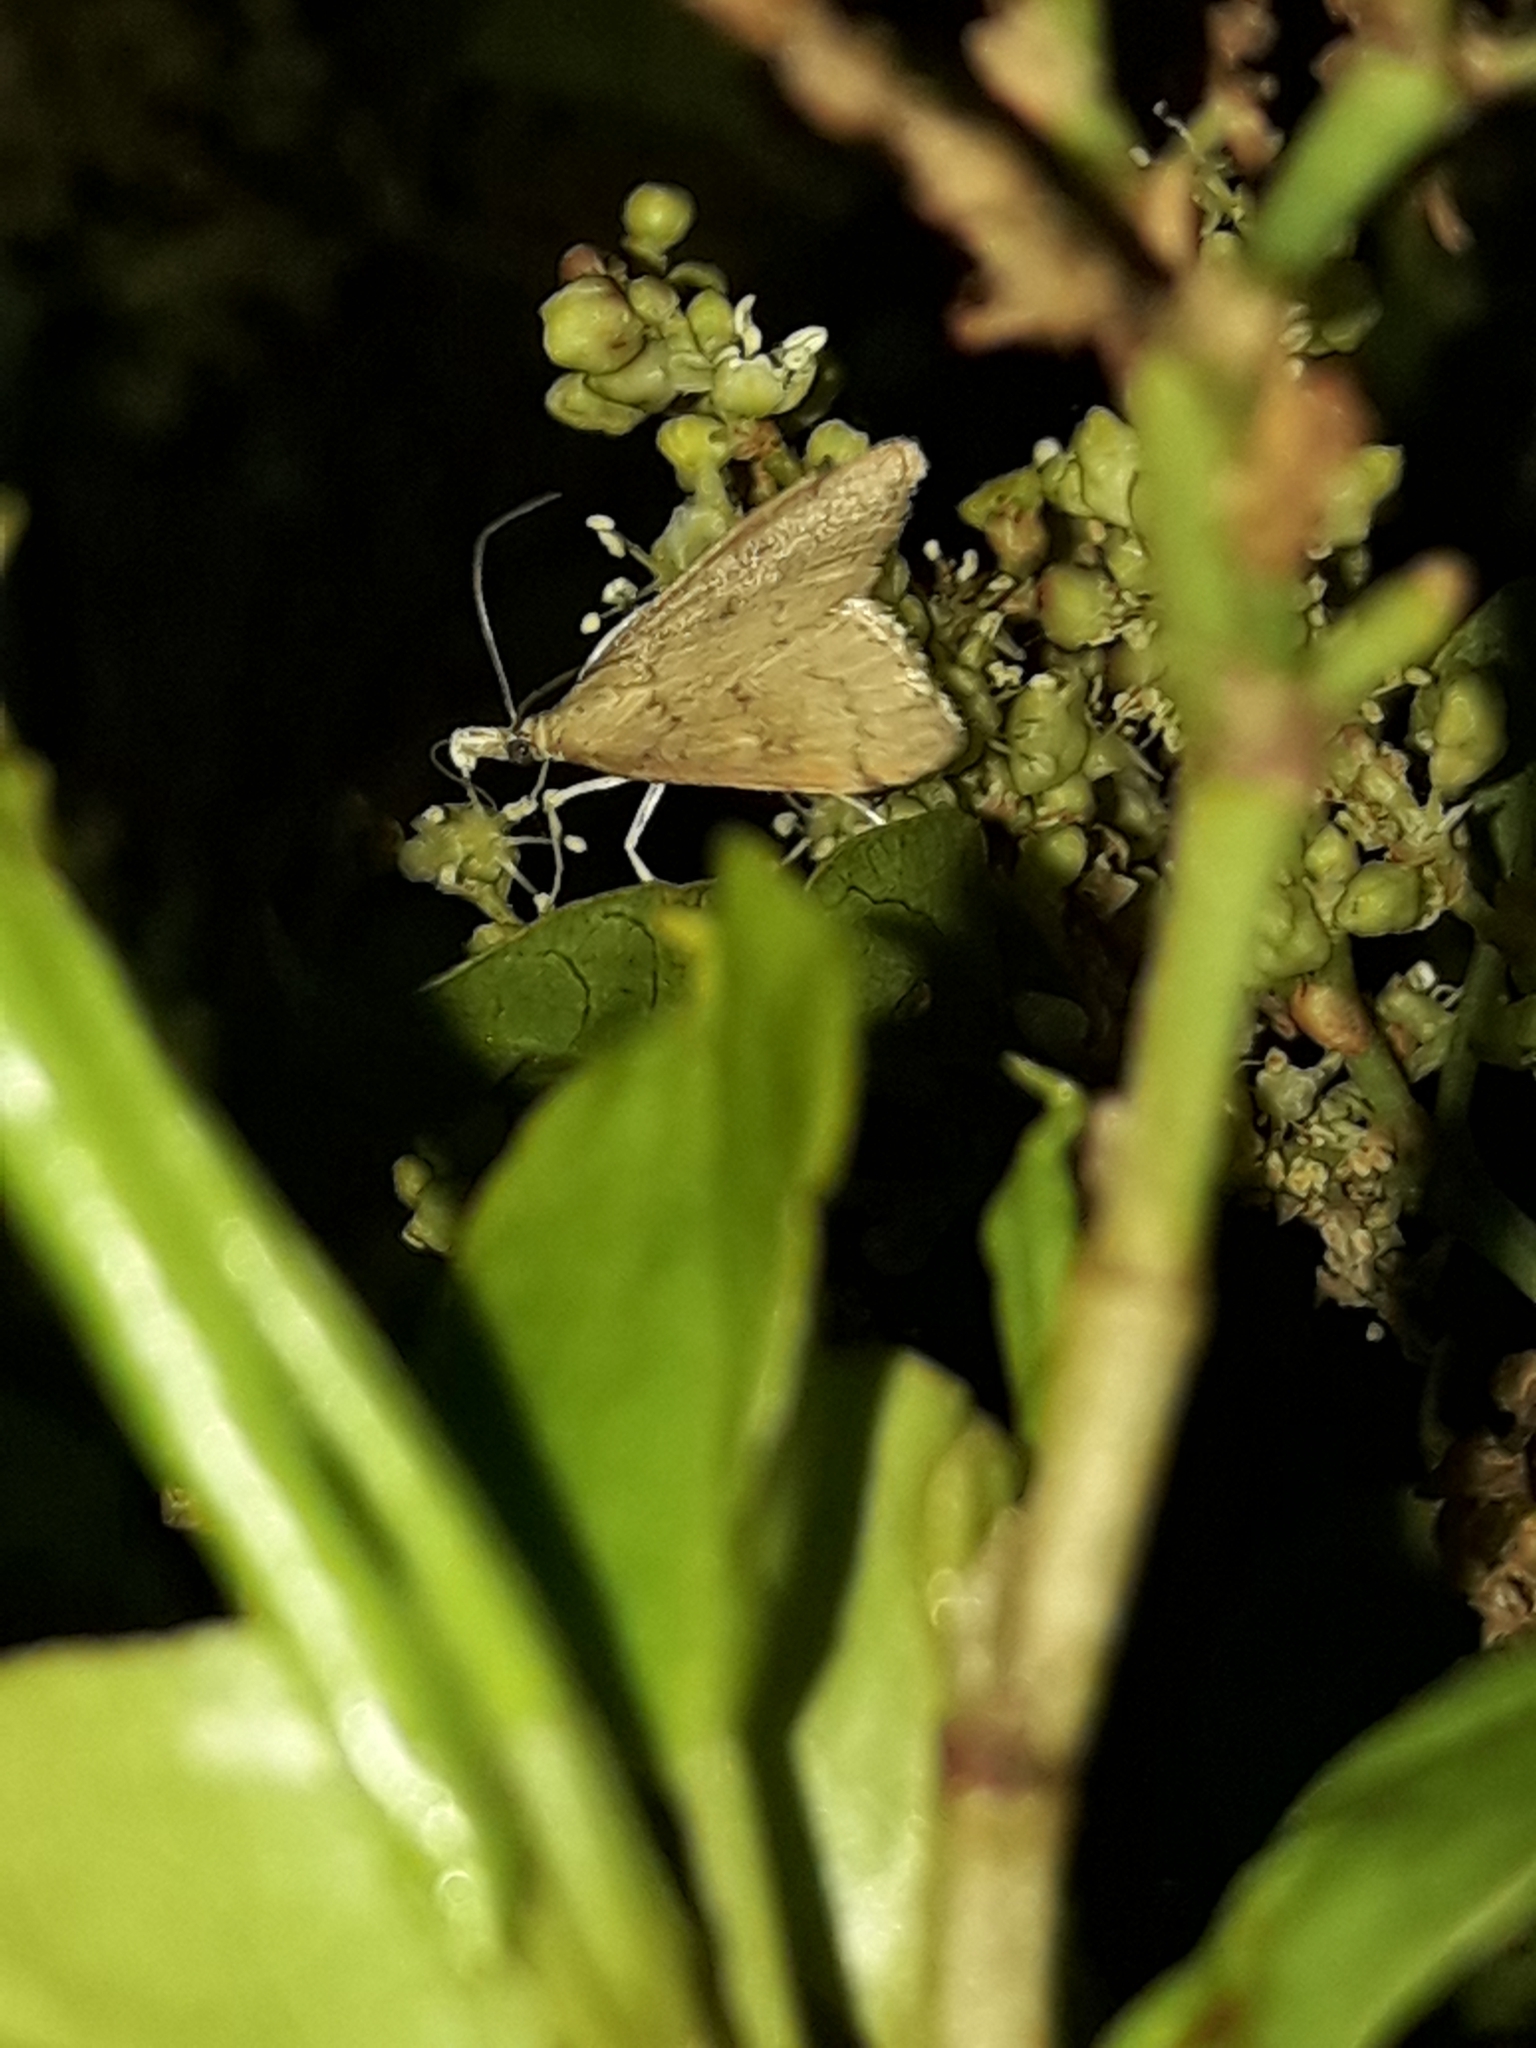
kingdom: Animalia
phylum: Arthropoda
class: Insecta
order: Lepidoptera
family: Crambidae
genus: Udea
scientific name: Udea Mnesictena flavidalis
